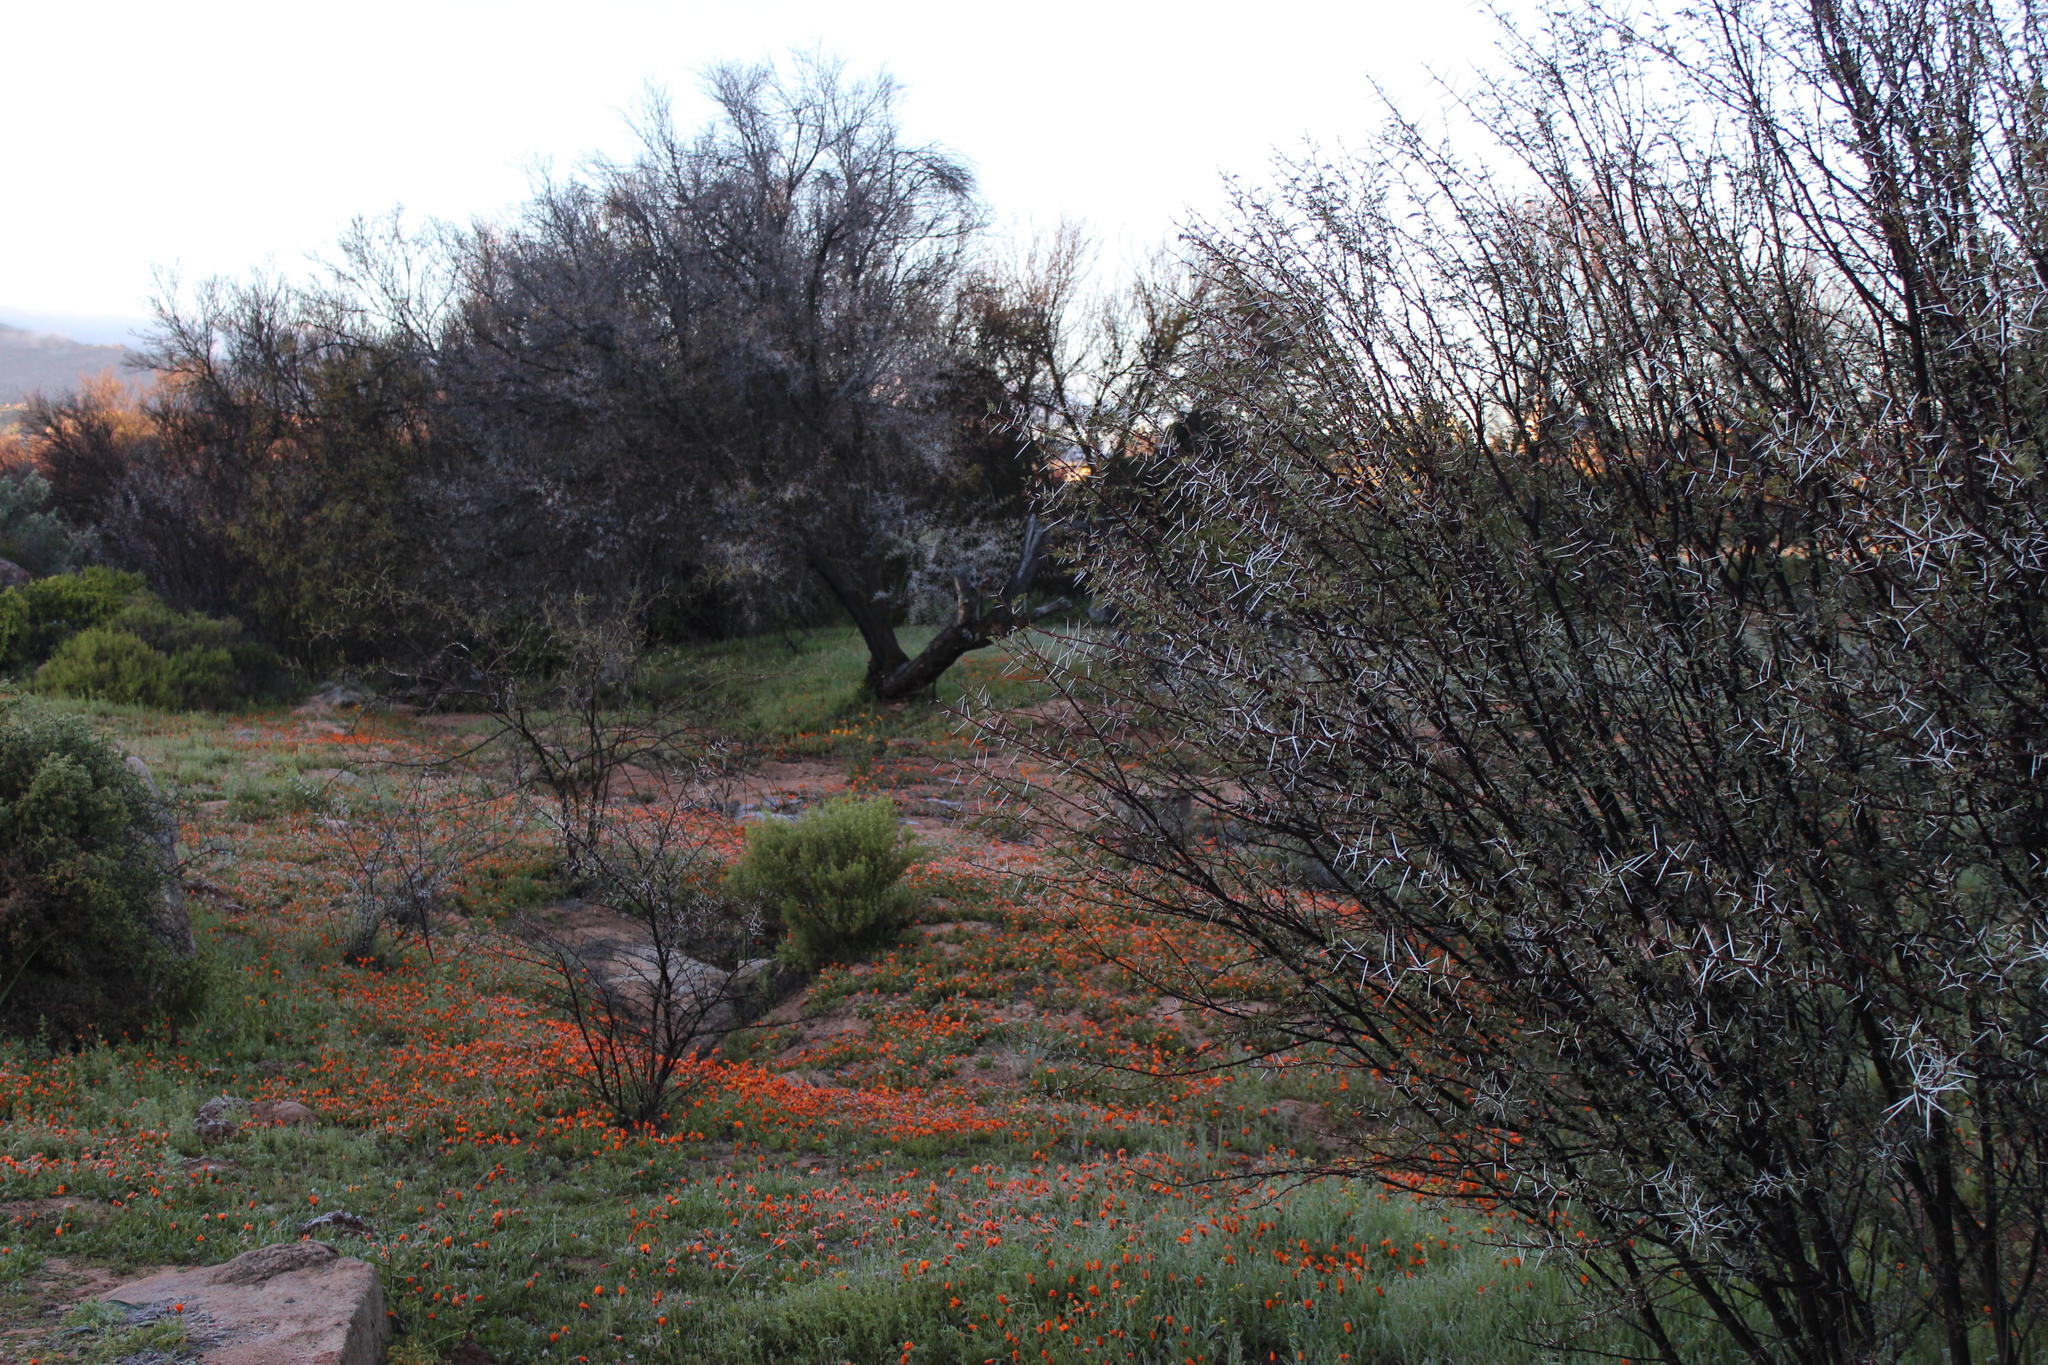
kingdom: Plantae
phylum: Tracheophyta
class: Magnoliopsida
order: Fabales
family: Fabaceae
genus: Vachellia
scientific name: Vachellia karroo
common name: Sweet thorn
